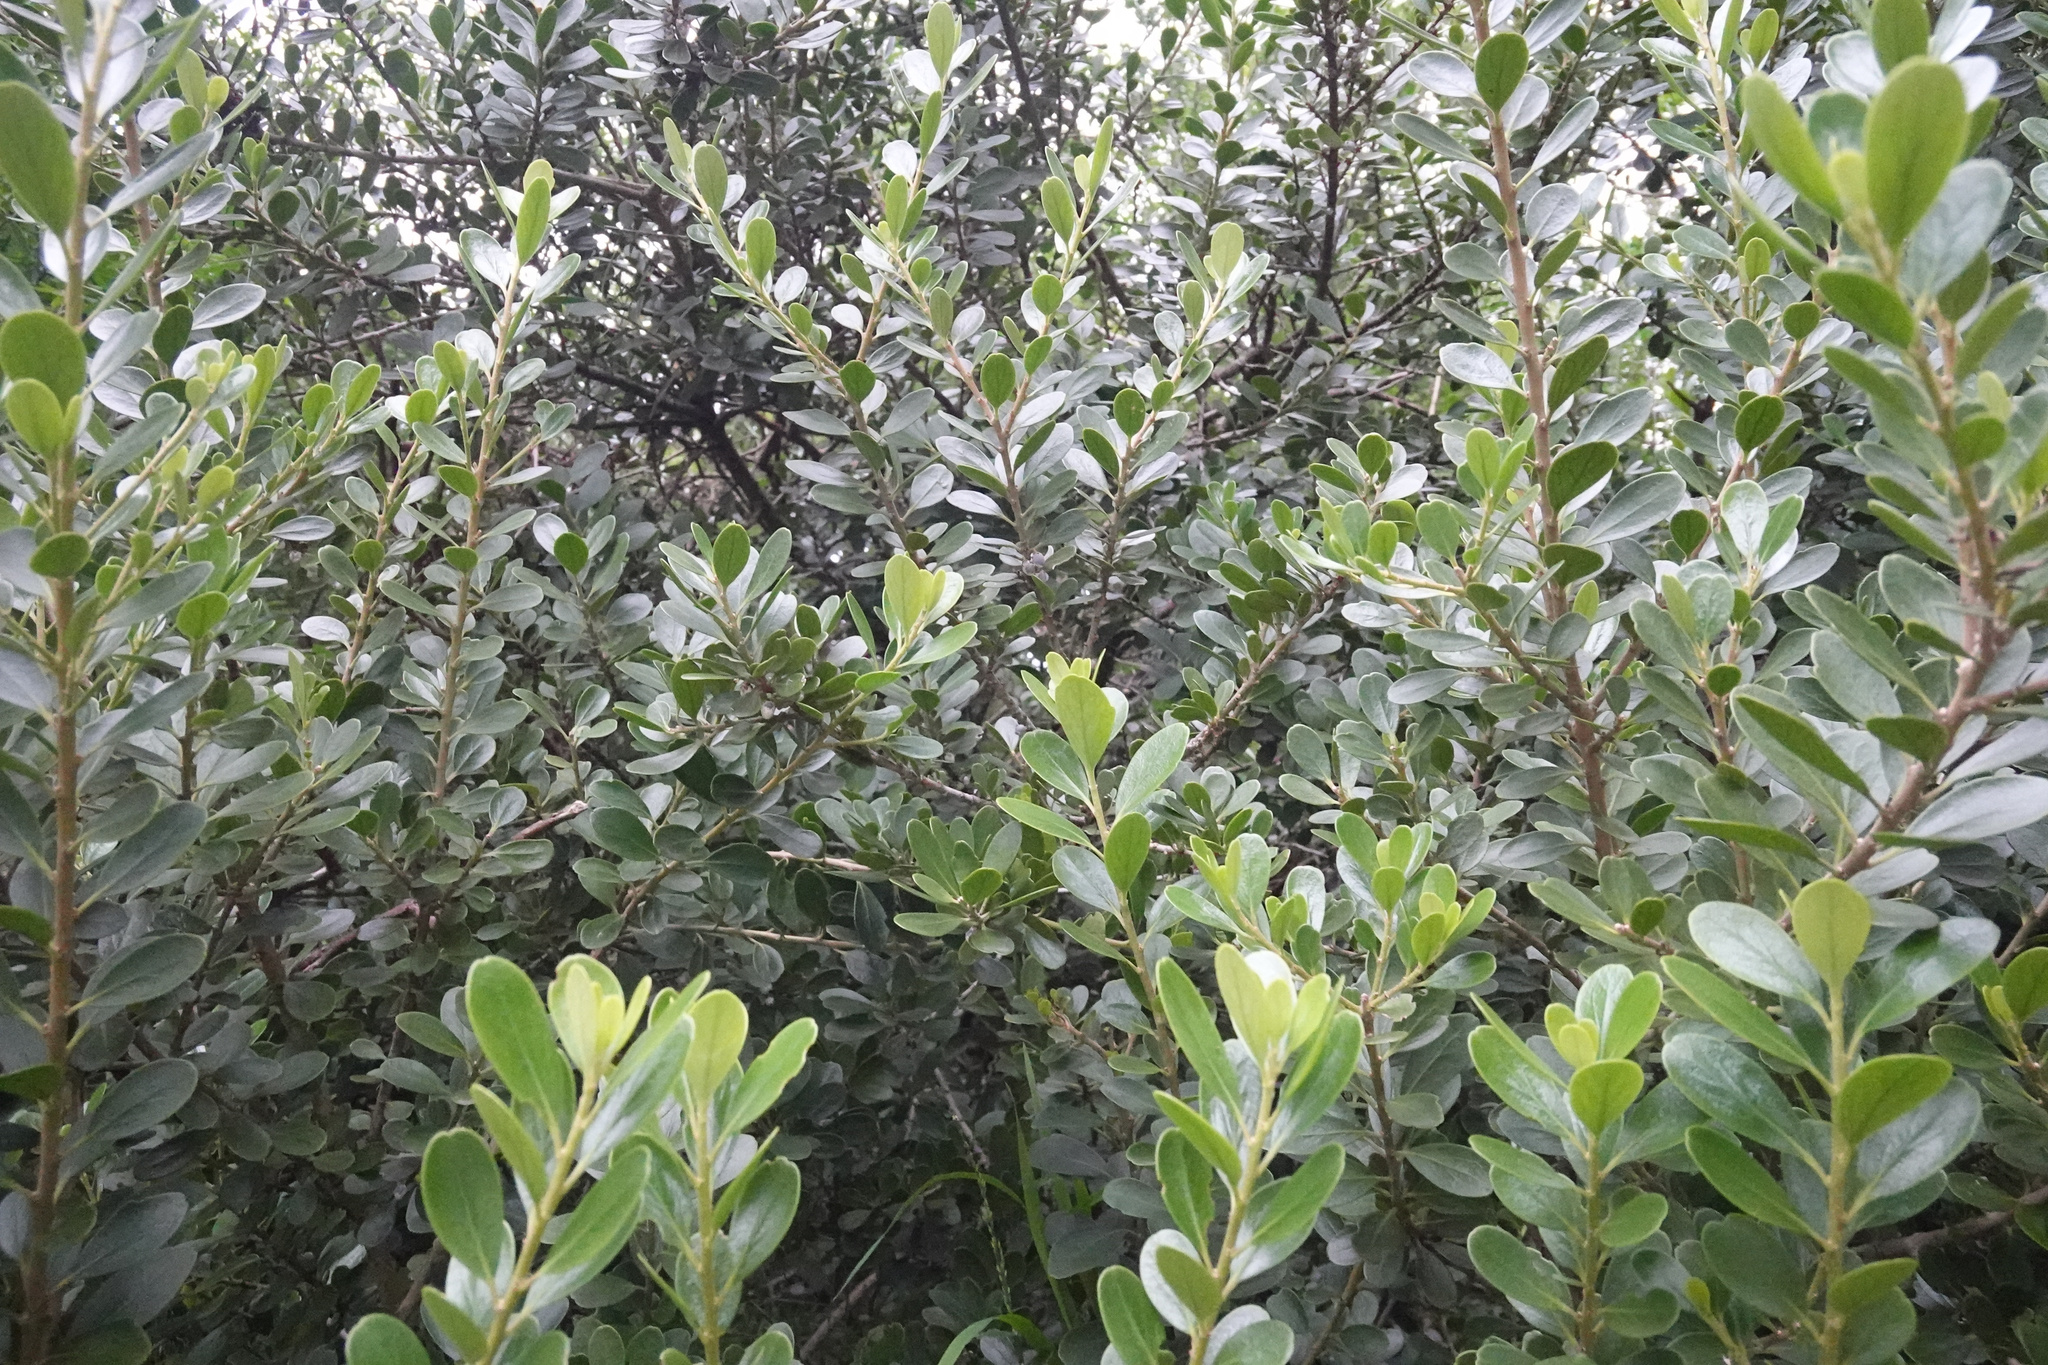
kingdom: Plantae
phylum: Tracheophyta
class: Magnoliopsida
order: Malpighiales
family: Violaceae
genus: Melicytus
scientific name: Melicytus obovatus
